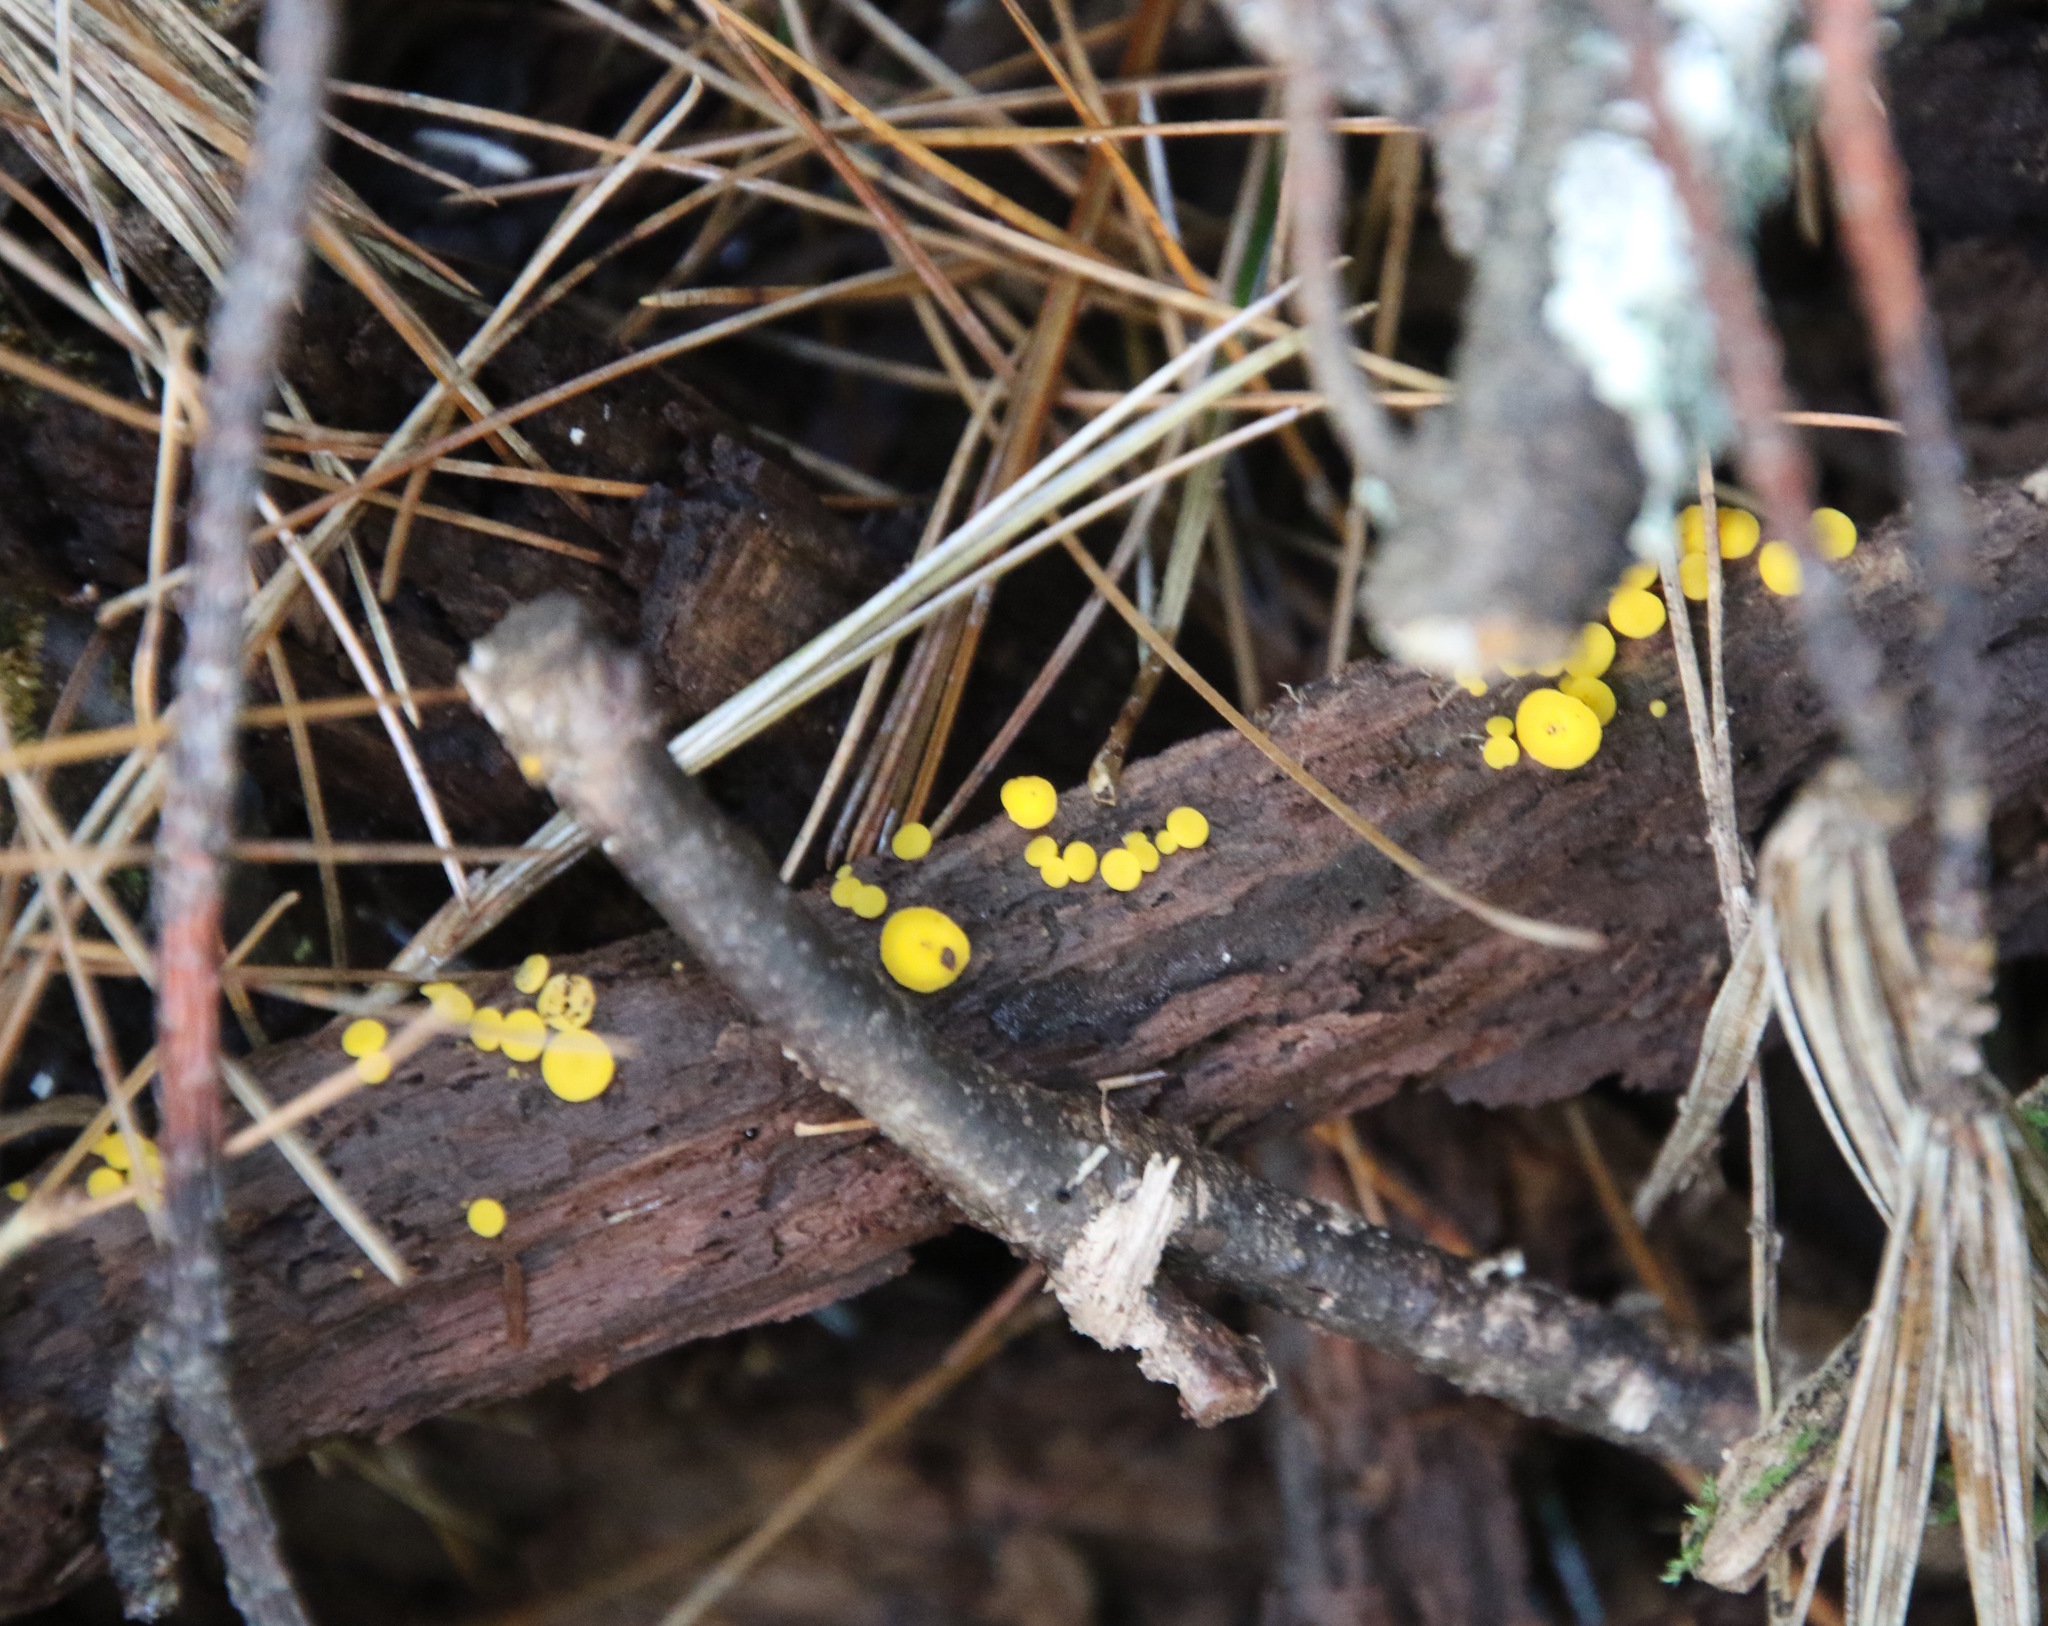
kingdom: Fungi
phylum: Ascomycota
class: Leotiomycetes
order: Helotiales
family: Pezizellaceae
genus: Calycina
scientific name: Calycina citrina
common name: Yellow fairy cups
